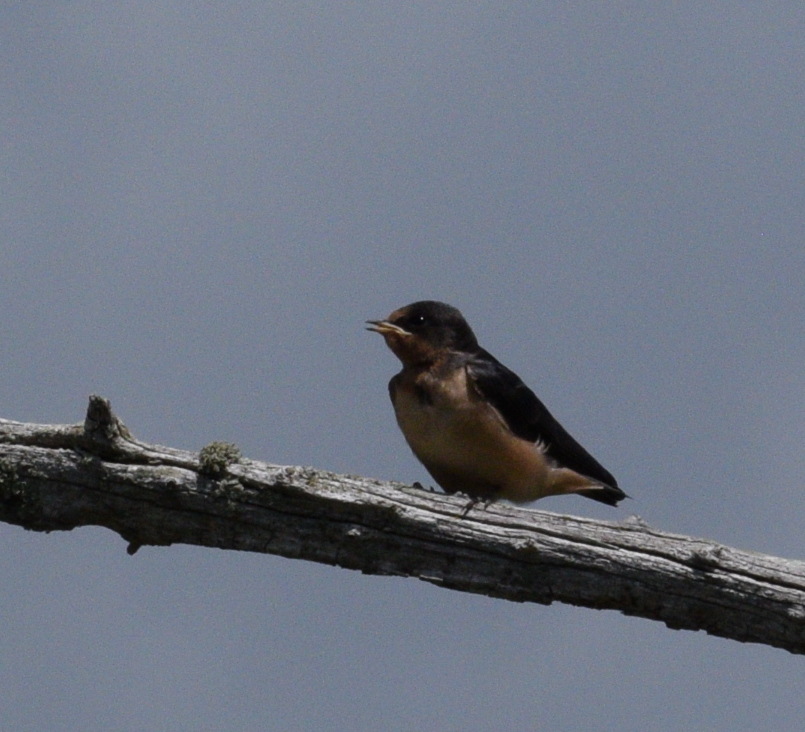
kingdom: Animalia
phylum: Chordata
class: Aves
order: Passeriformes
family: Hirundinidae
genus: Hirundo
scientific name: Hirundo rustica
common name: Barn swallow
